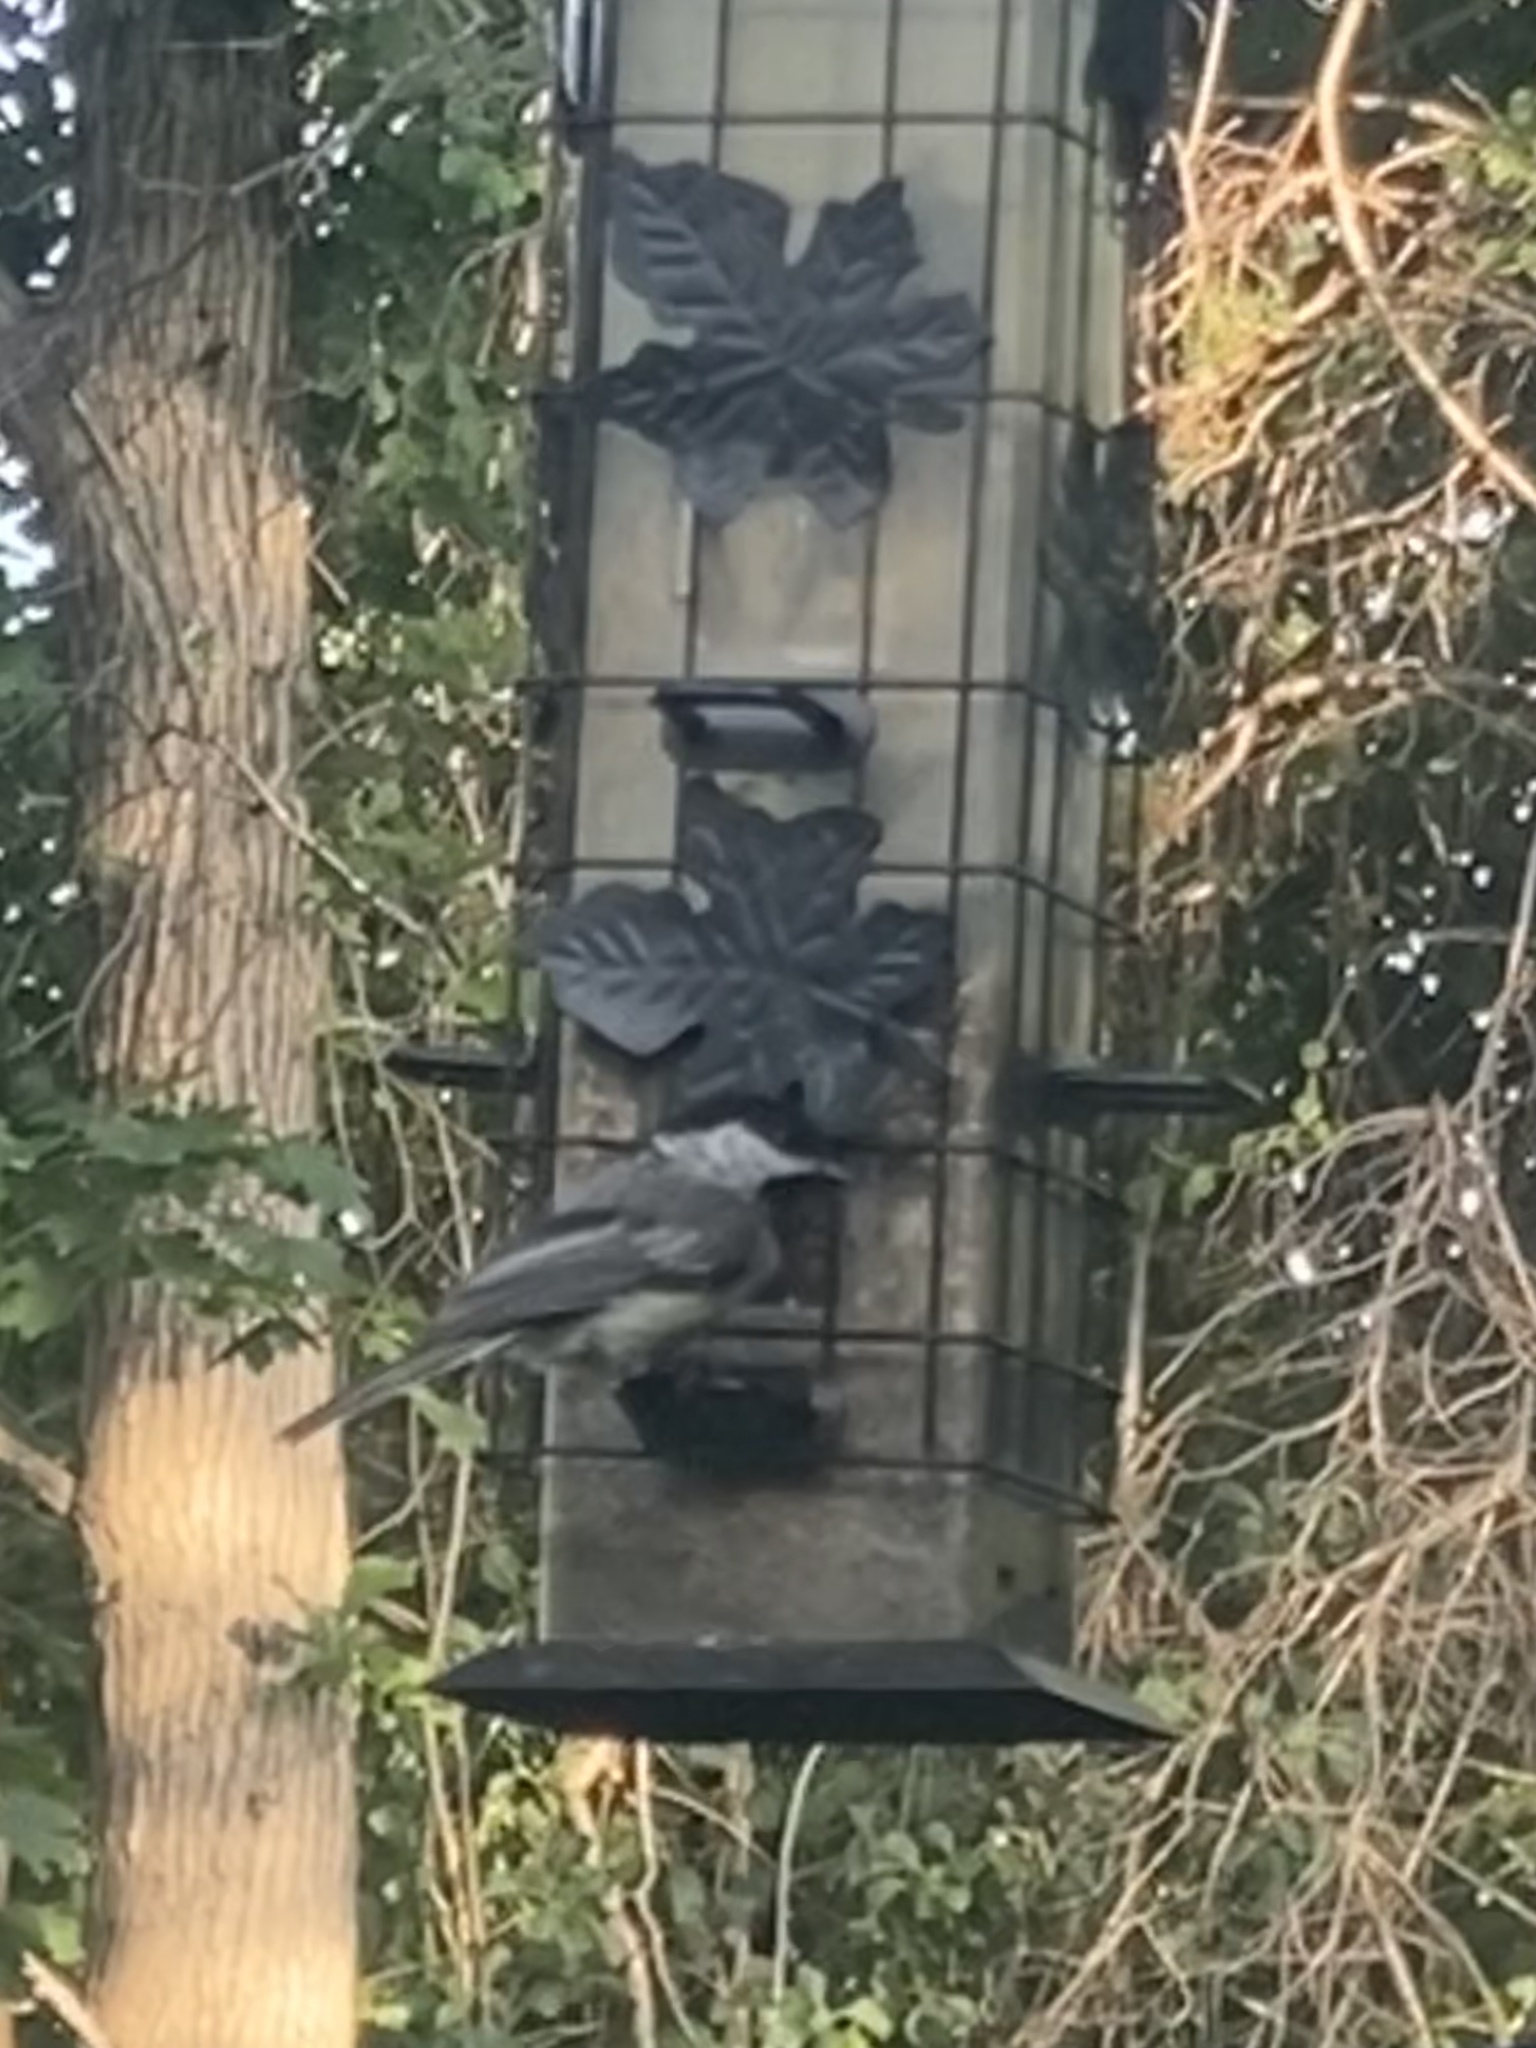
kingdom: Animalia
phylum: Chordata
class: Aves
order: Passeriformes
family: Paridae
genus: Poecile
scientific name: Poecile atricapillus
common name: Black-capped chickadee
